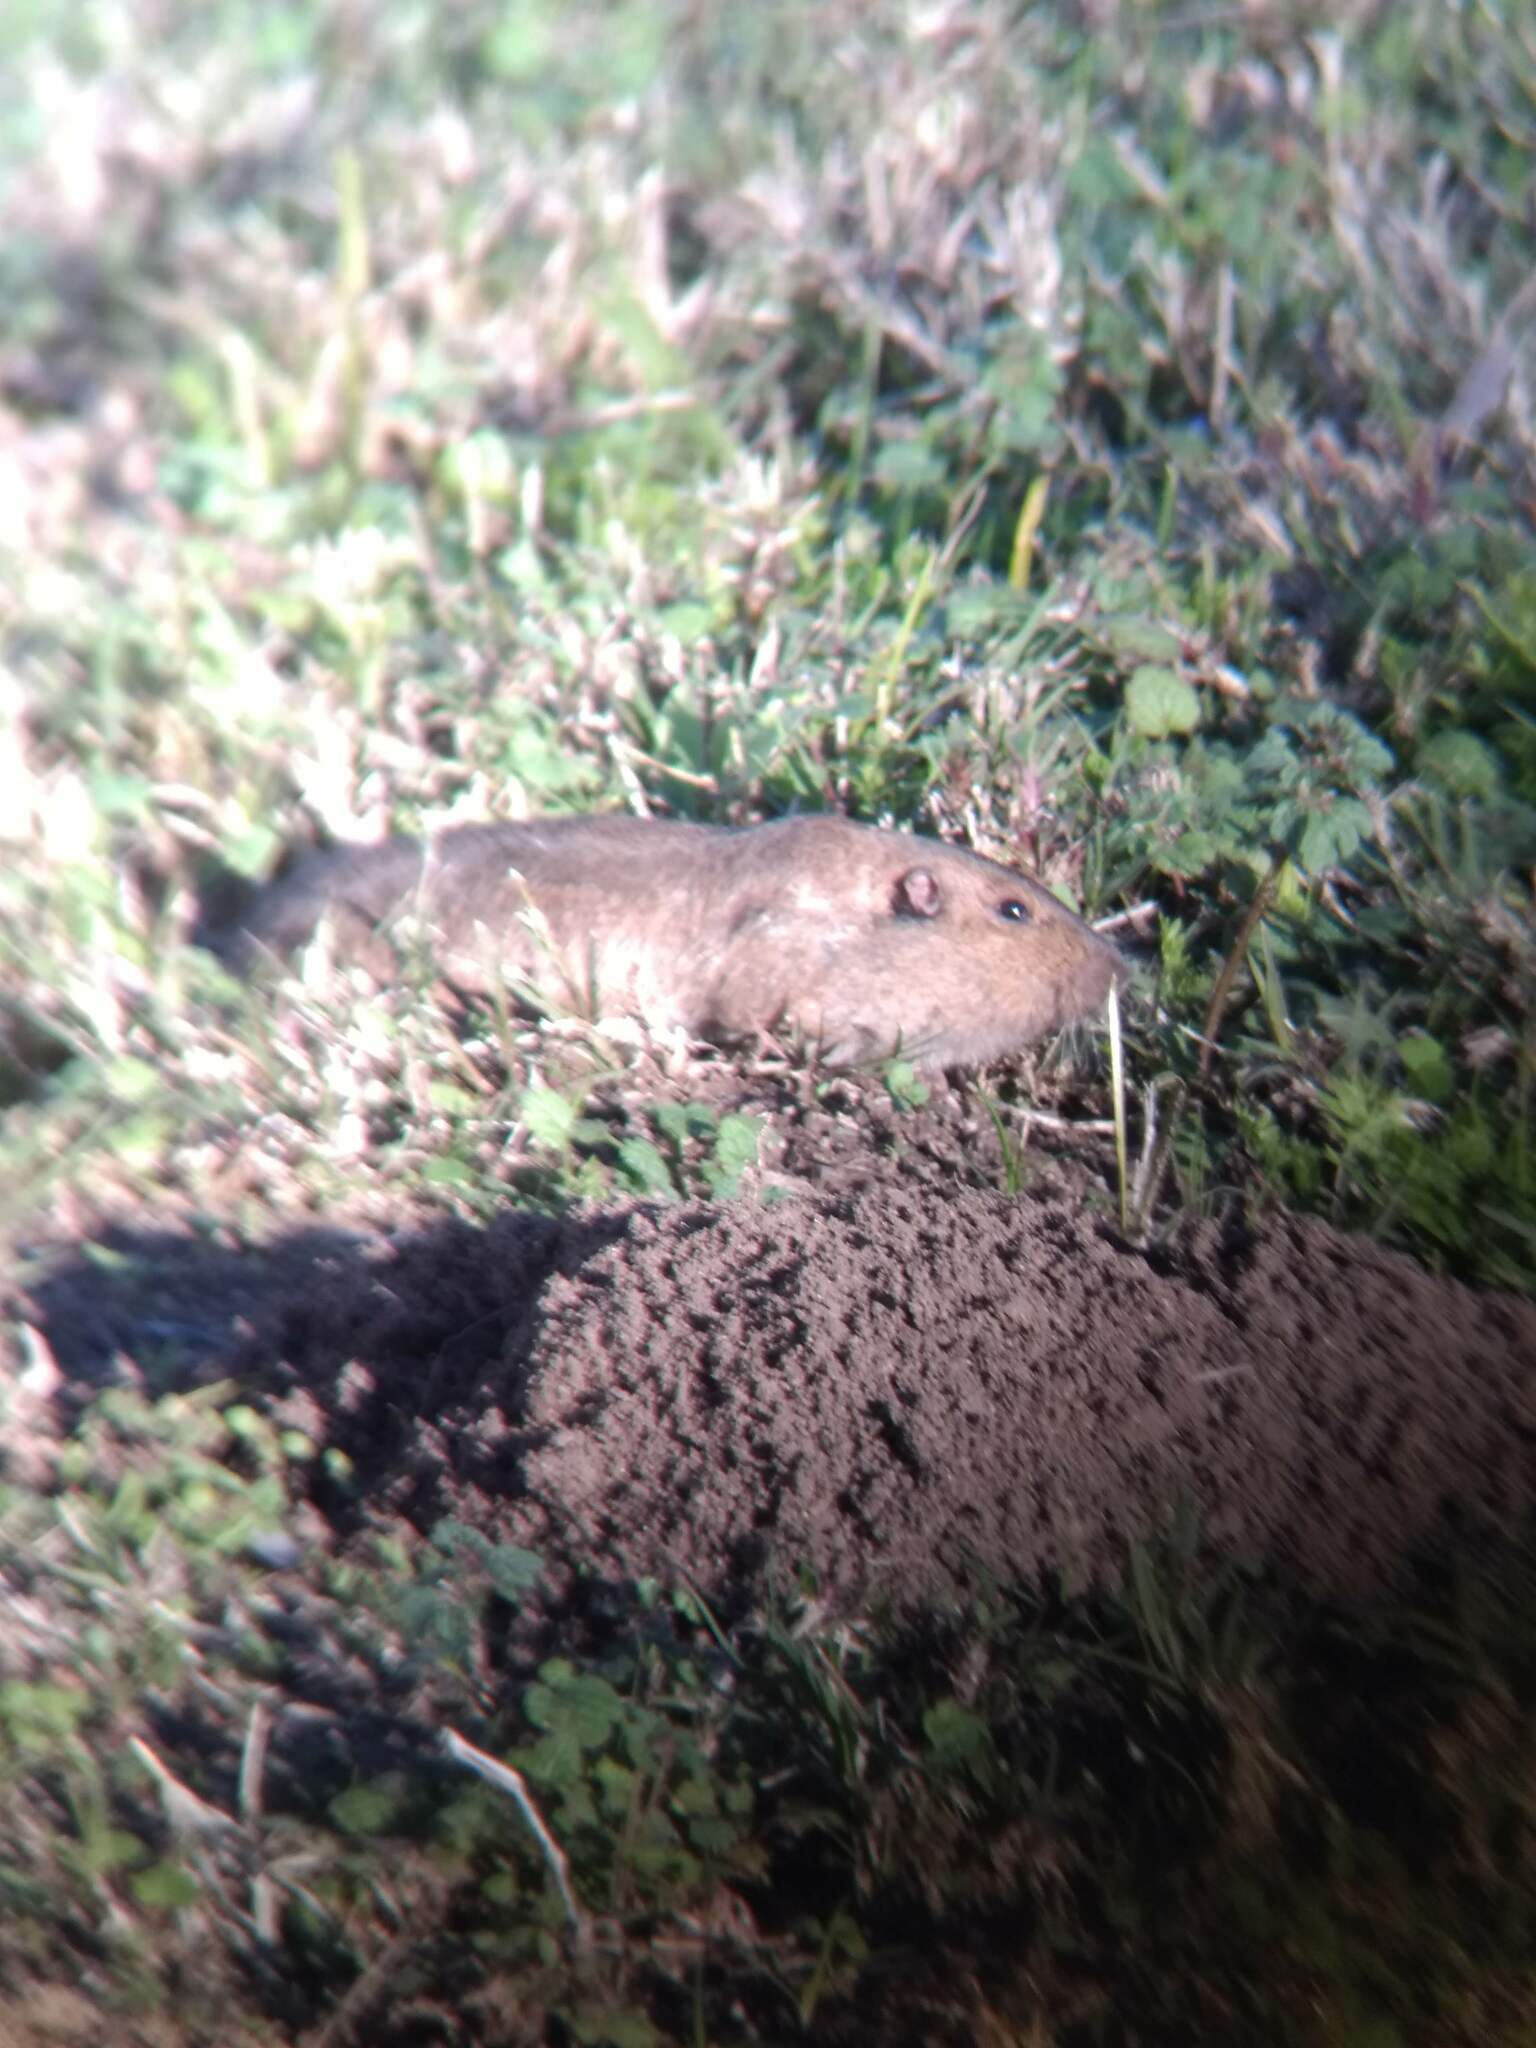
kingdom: Animalia
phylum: Chordata
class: Mammalia
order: Rodentia
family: Geomyidae
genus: Thomomys
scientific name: Thomomys bottae
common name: Botta's pocket gopher
